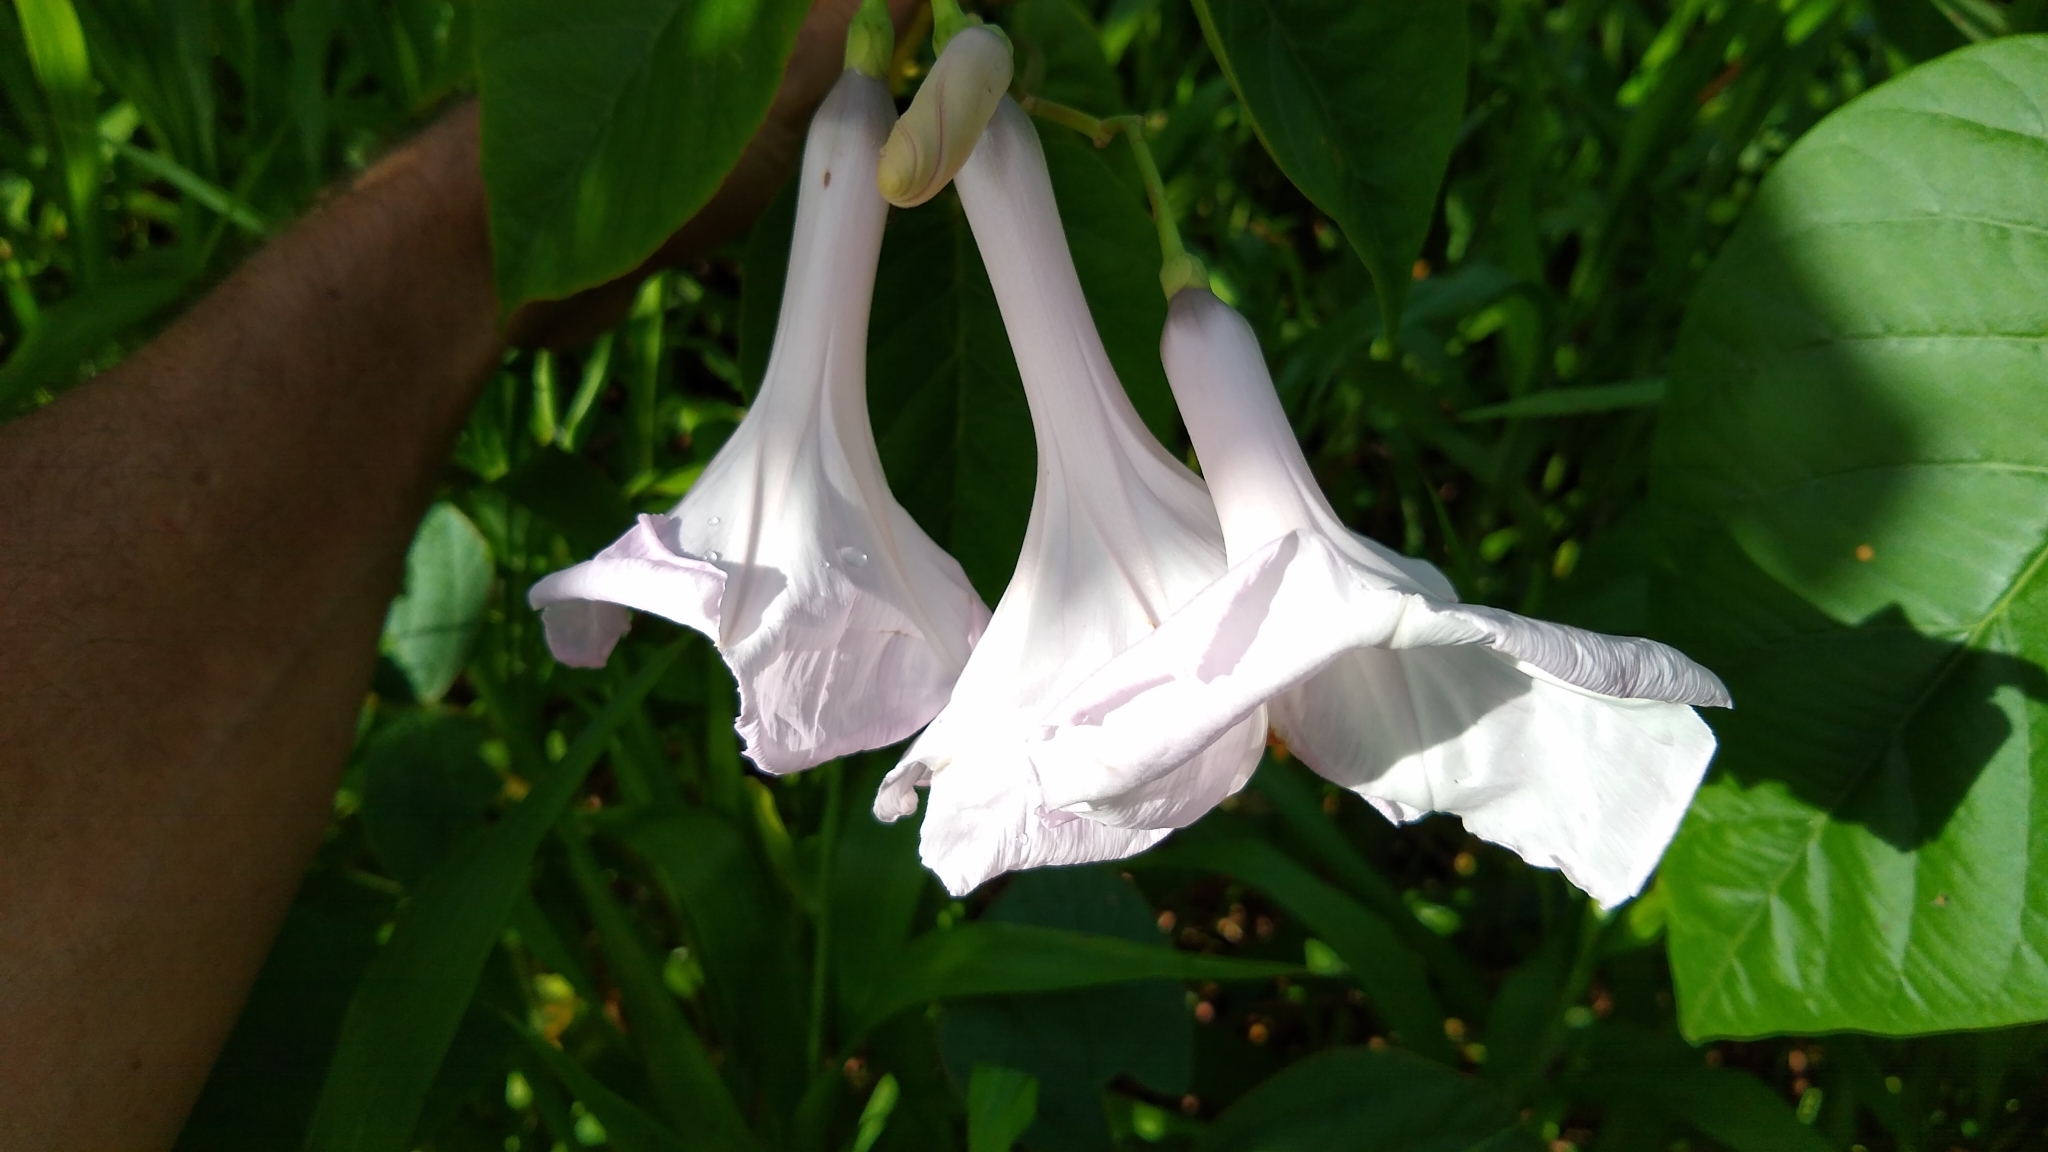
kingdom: Plantae
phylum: Tracheophyta
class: Magnoliopsida
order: Solanales
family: Convolvulaceae
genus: Ipomoea
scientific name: Ipomoea carnea
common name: Morning-glory
